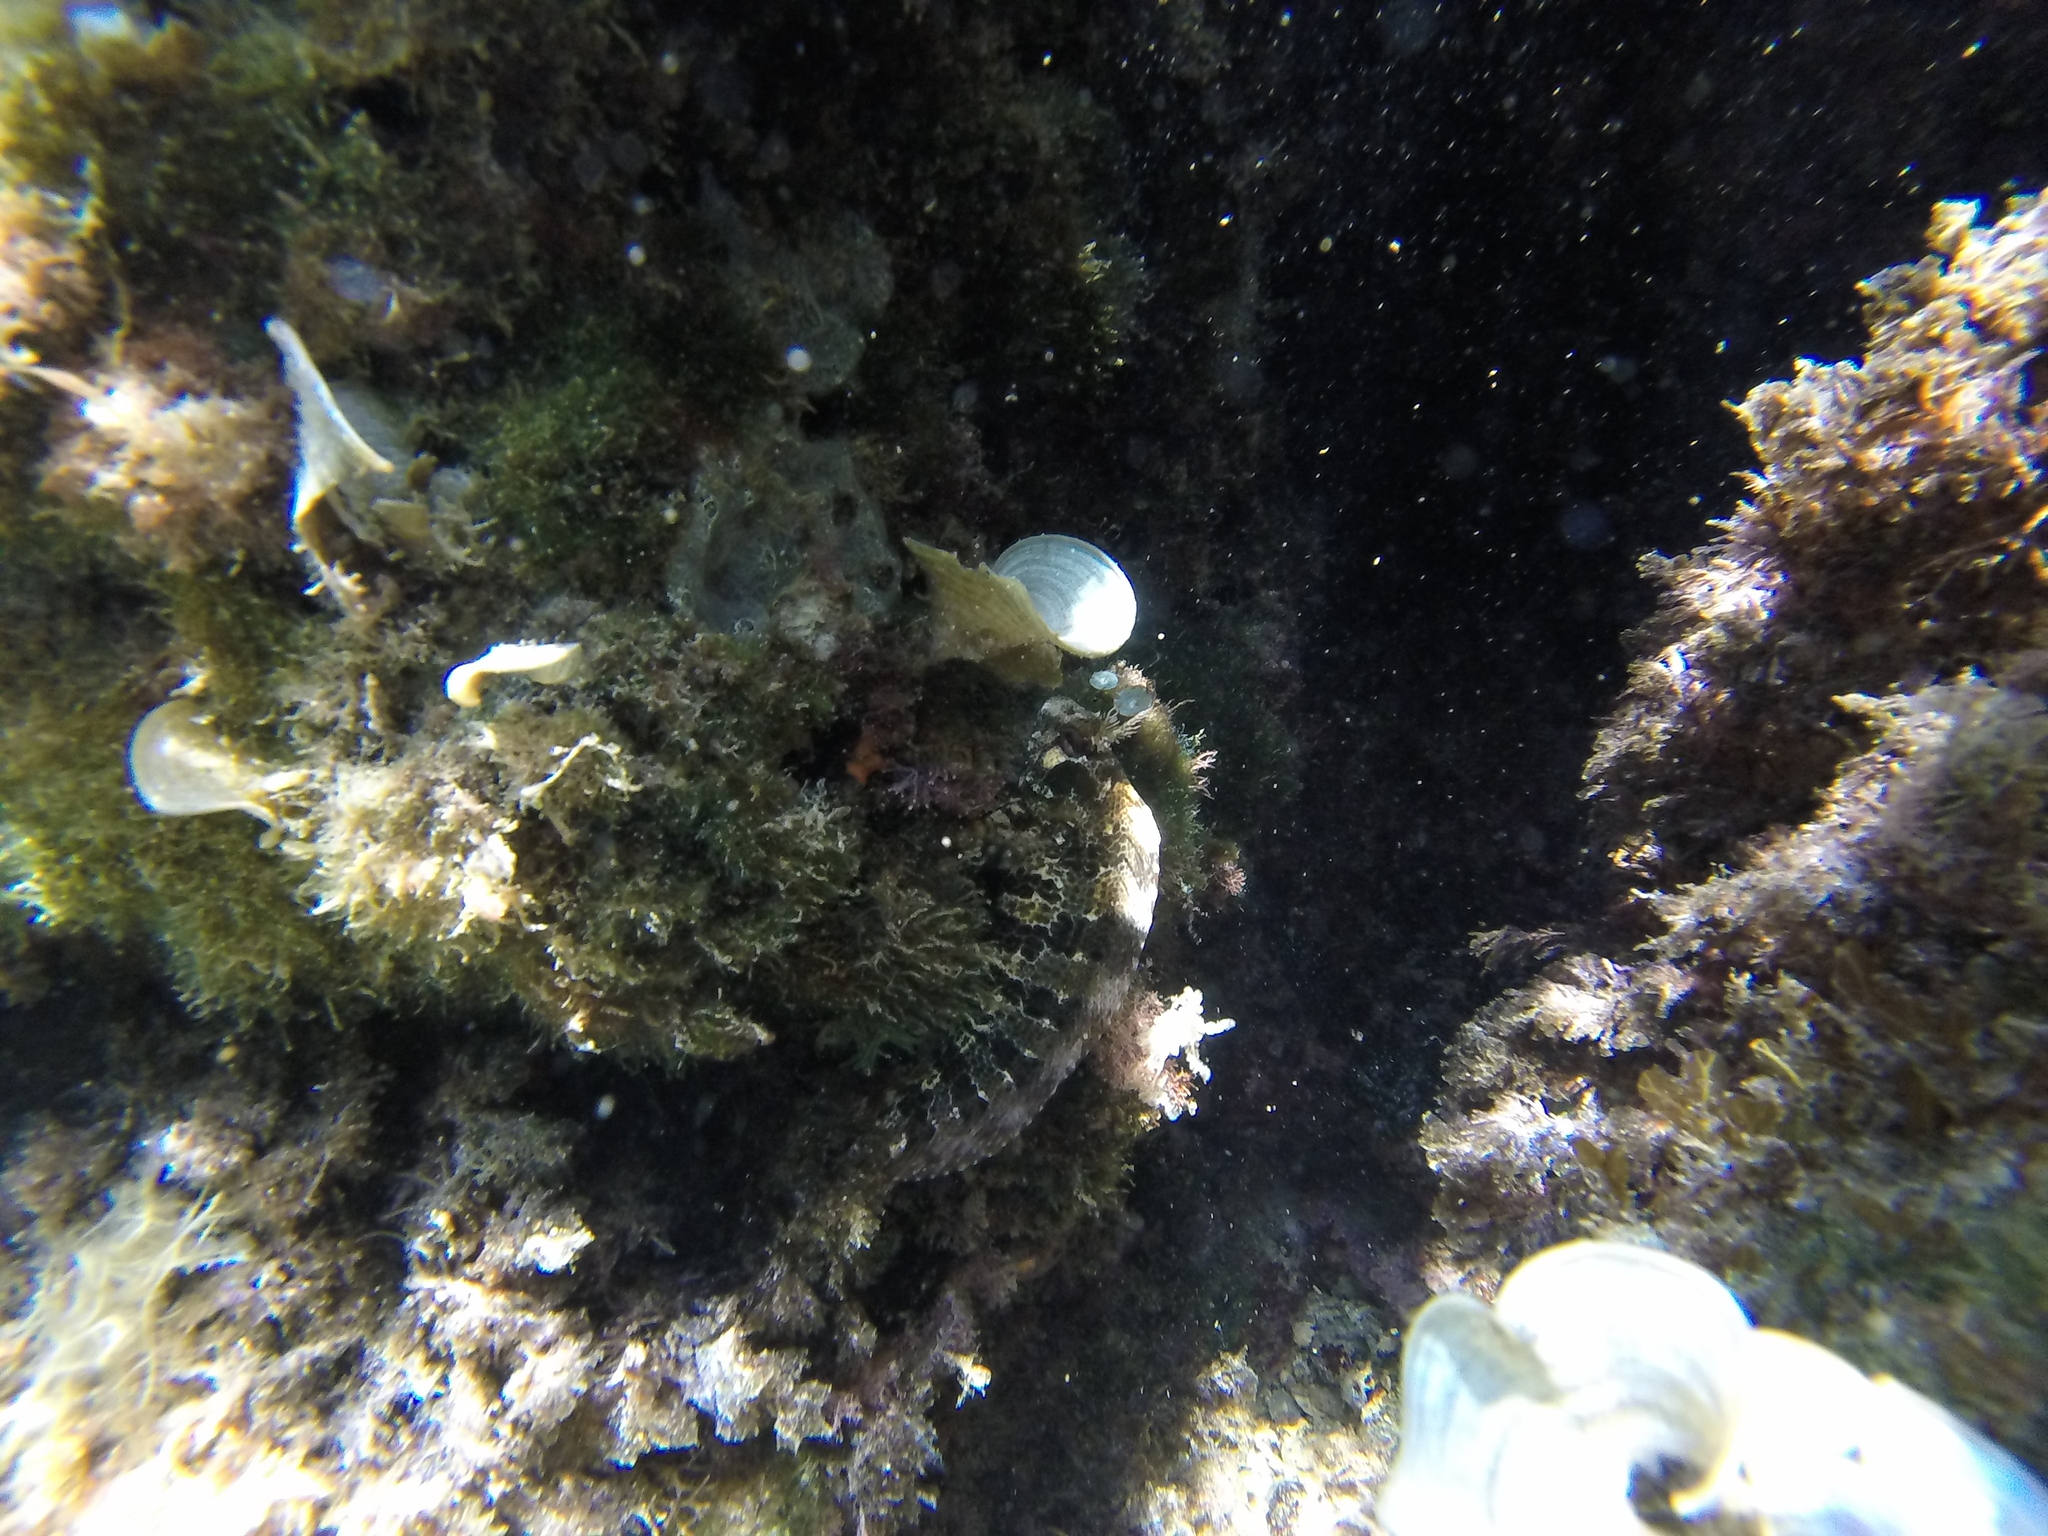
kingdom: Animalia
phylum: Chordata
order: Perciformes
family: Blenniidae
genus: Parablennius
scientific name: Parablennius gattorugine
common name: Tompot blenny
